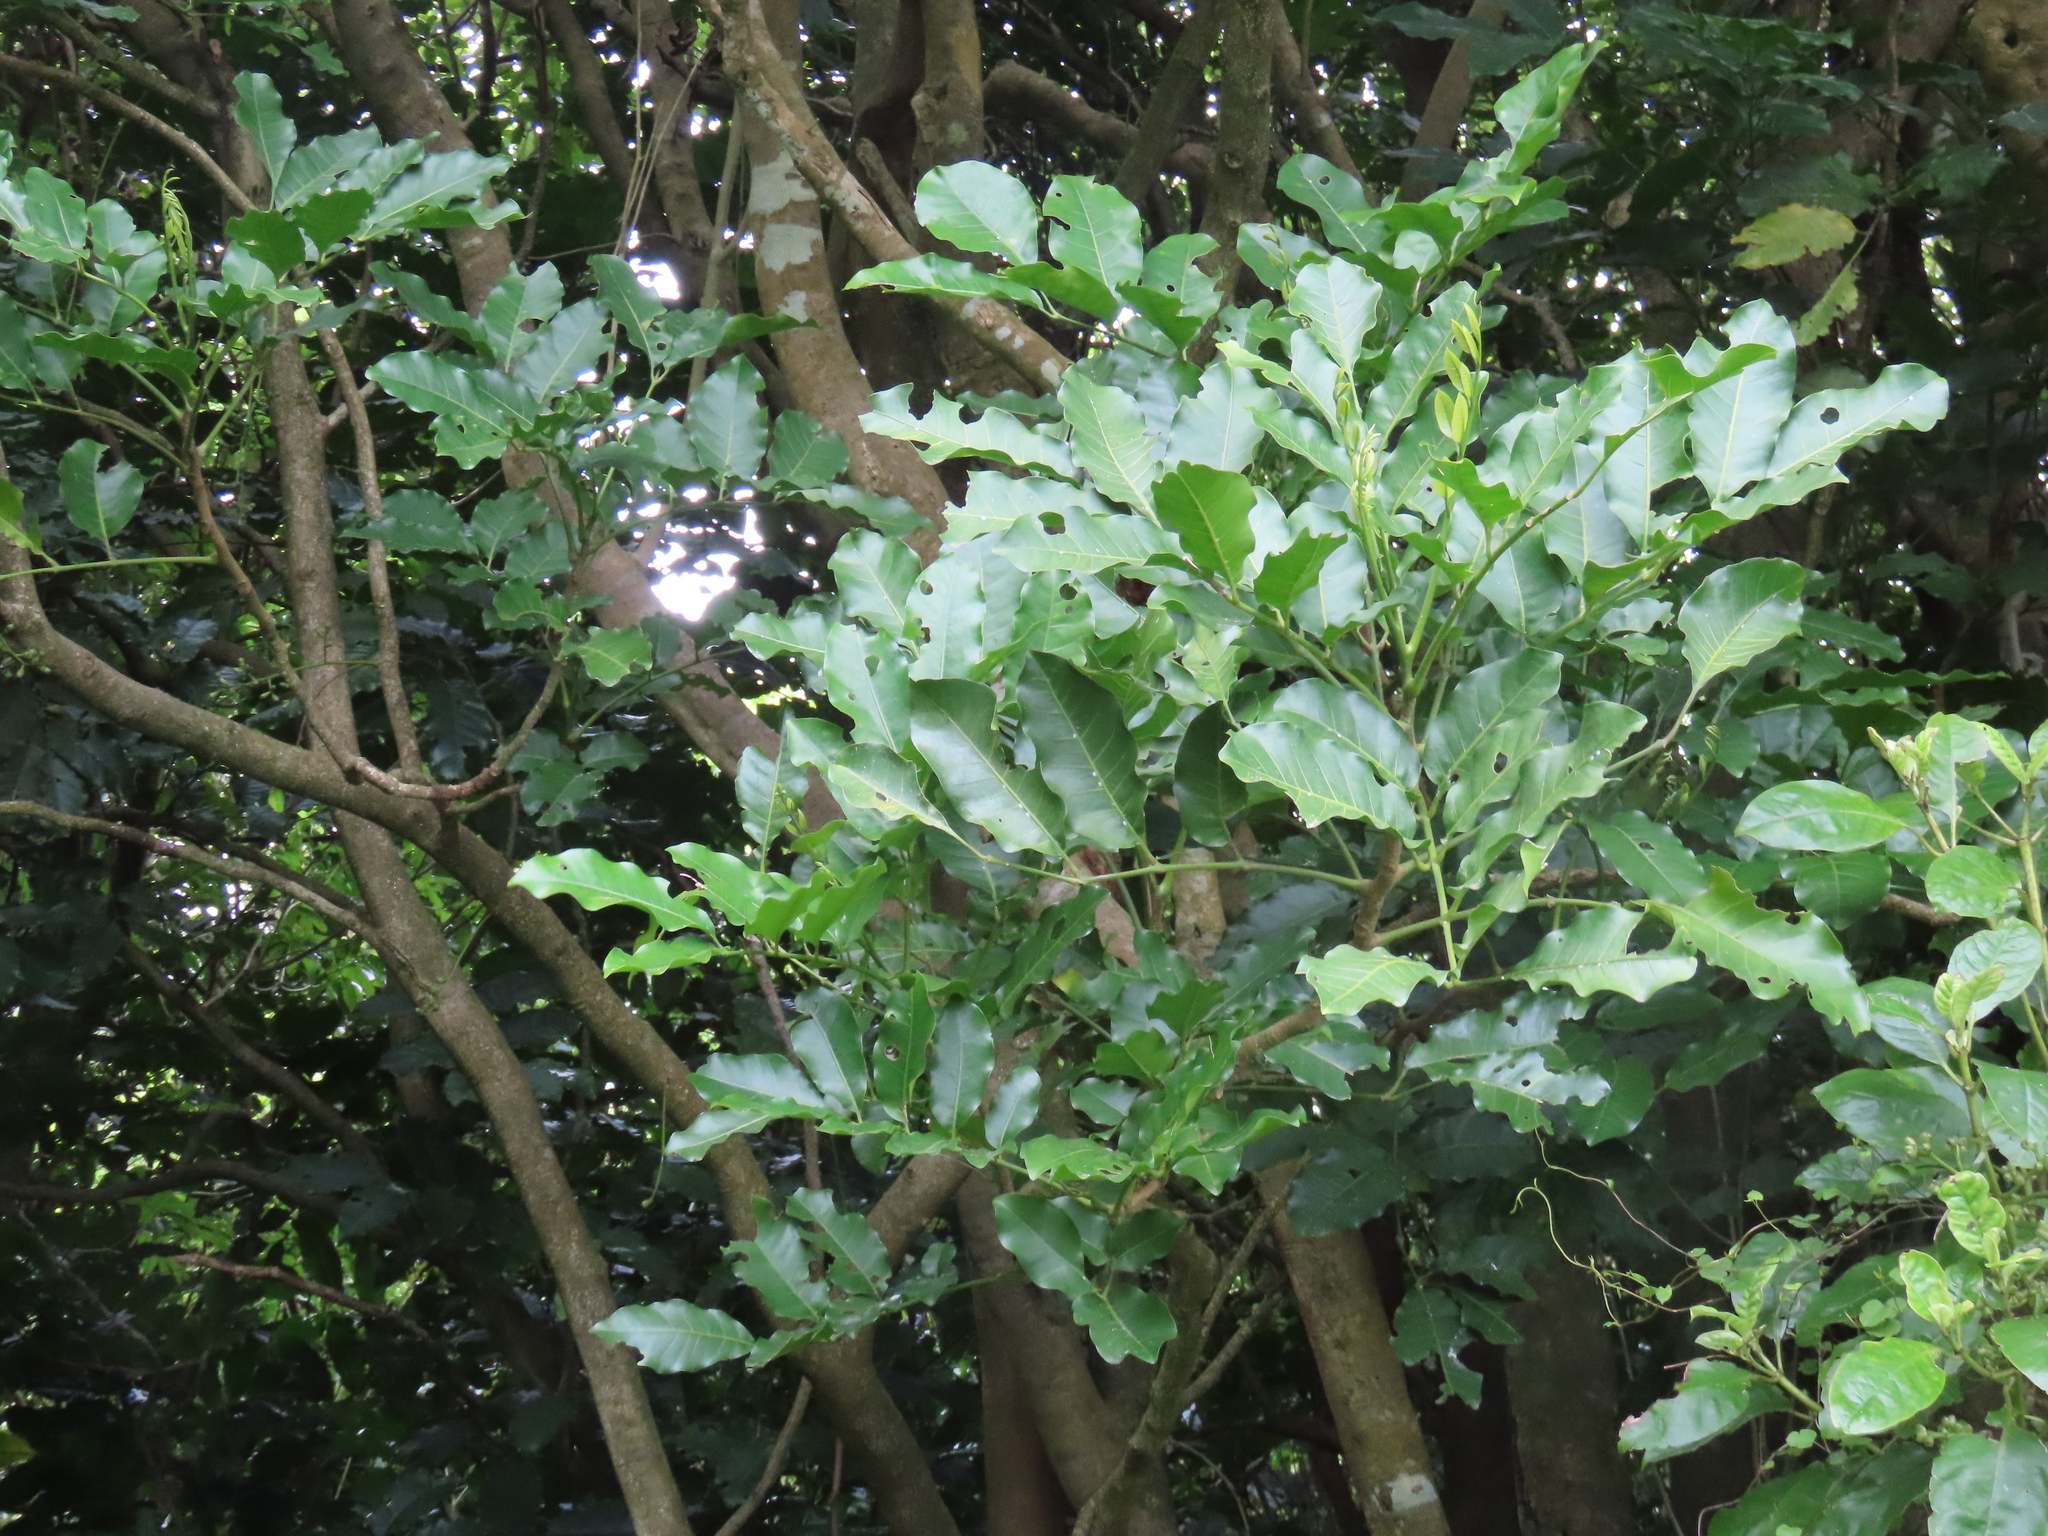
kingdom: Plantae
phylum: Tracheophyta
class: Magnoliopsida
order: Sapindales
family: Meliaceae
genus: Didymocheton
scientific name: Didymocheton spectabilis
